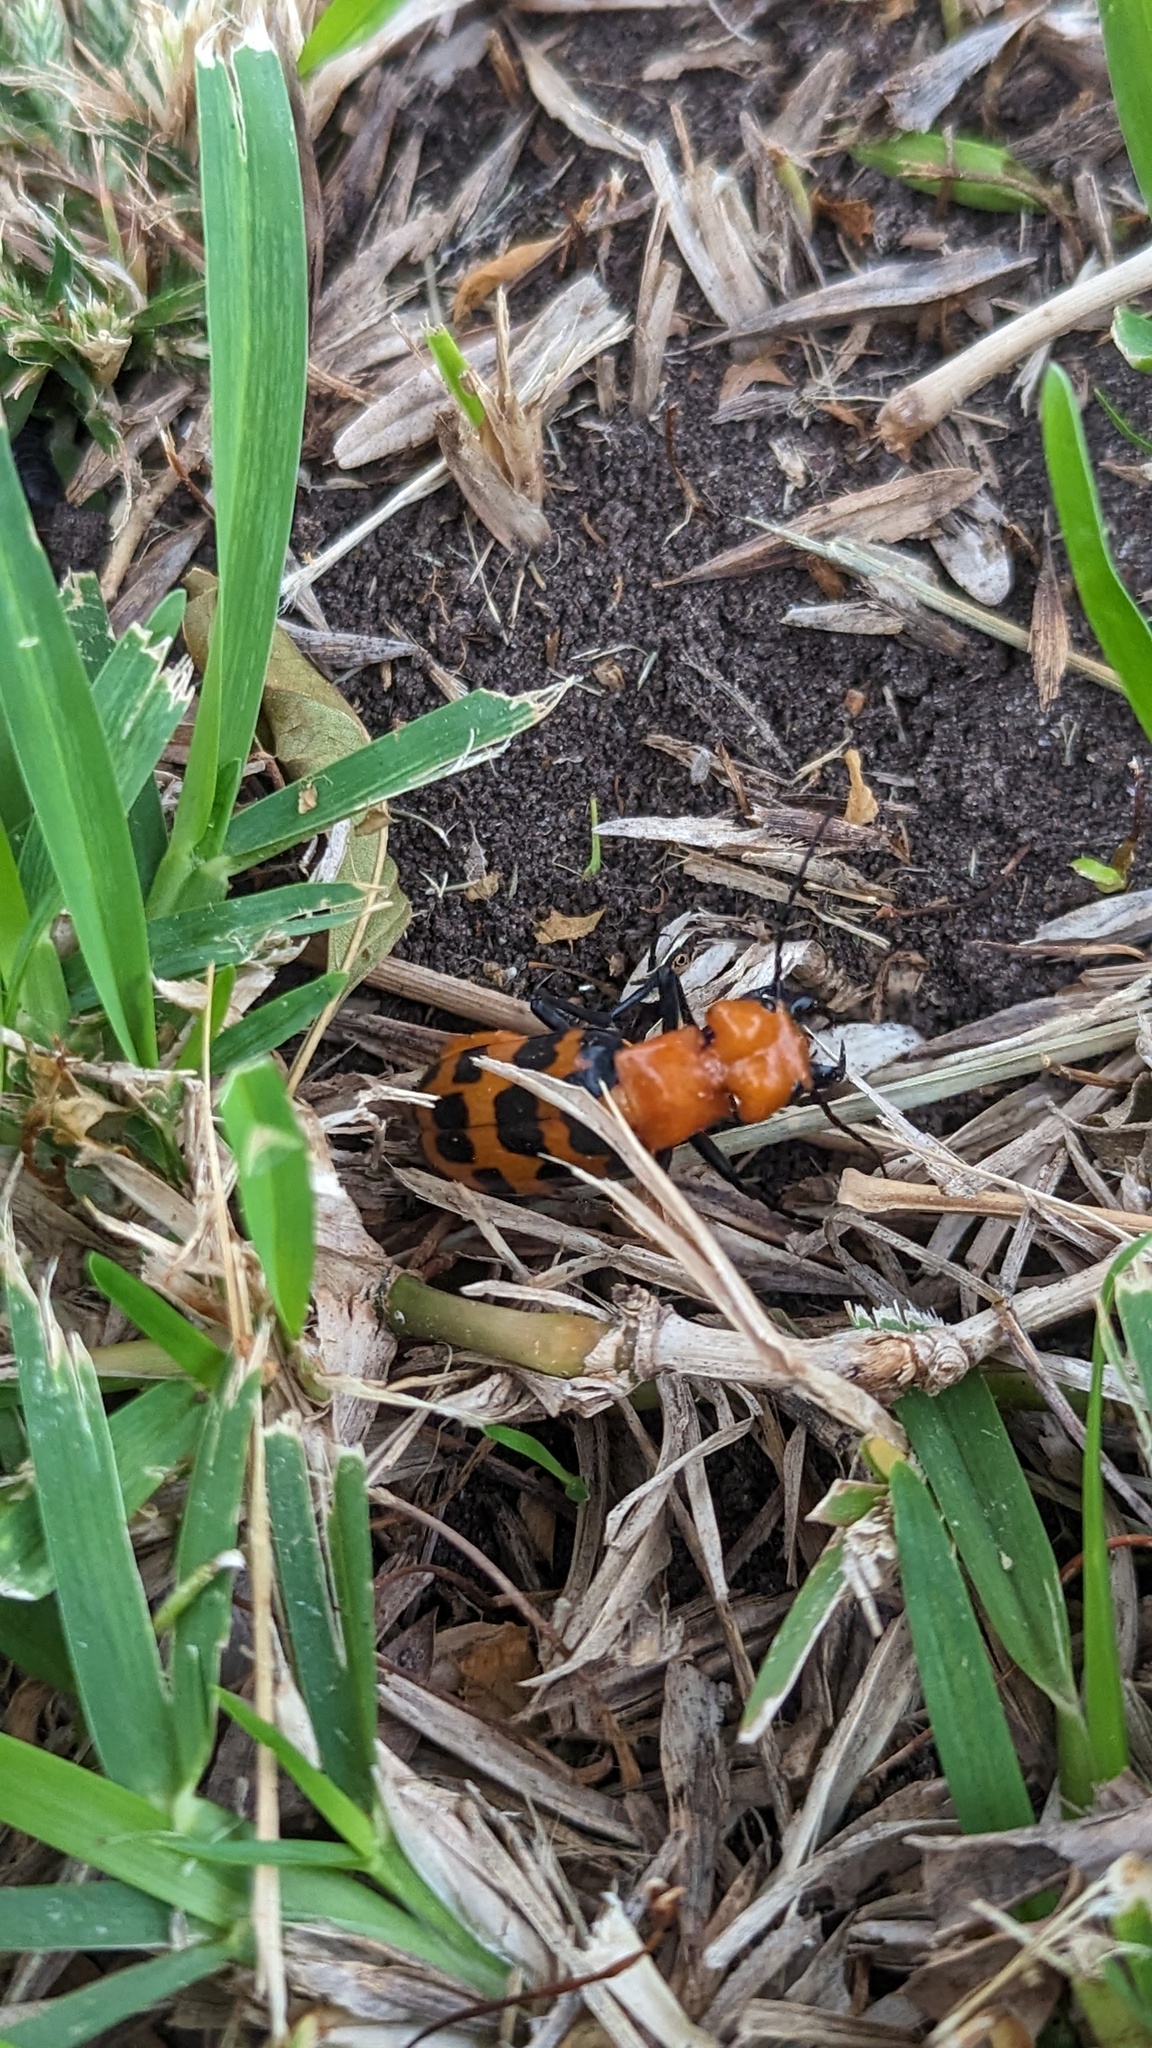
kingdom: Animalia
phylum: Arthropoda
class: Insecta
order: Coleoptera
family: Meloidae
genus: Cissites
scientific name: Cissites auriculata
